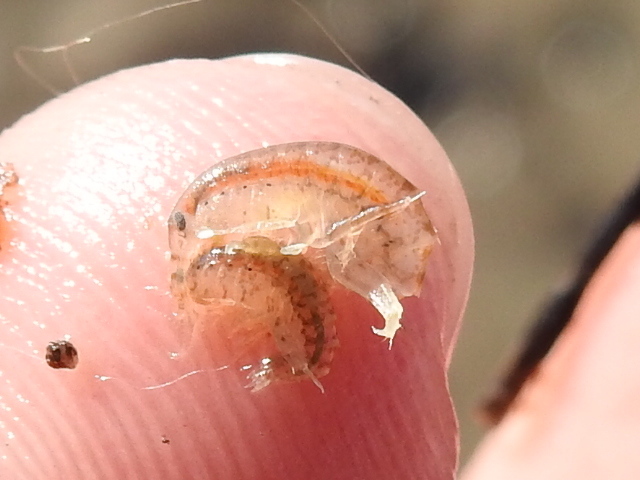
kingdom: Animalia
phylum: Arthropoda
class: Malacostraca
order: Amphipoda
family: Gammaridae
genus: Gammarus
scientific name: Gammarus mucronatus
